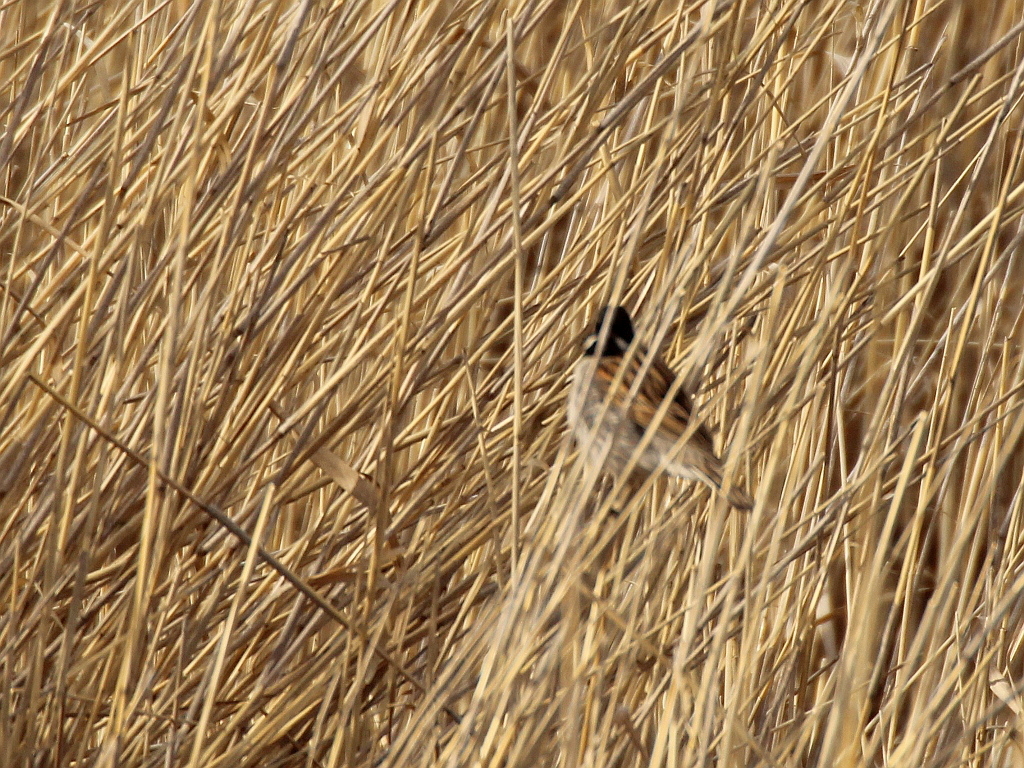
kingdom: Animalia
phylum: Chordata
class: Aves
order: Passeriformes
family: Emberizidae
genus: Emberiza
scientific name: Emberiza schoeniclus
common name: Reed bunting
